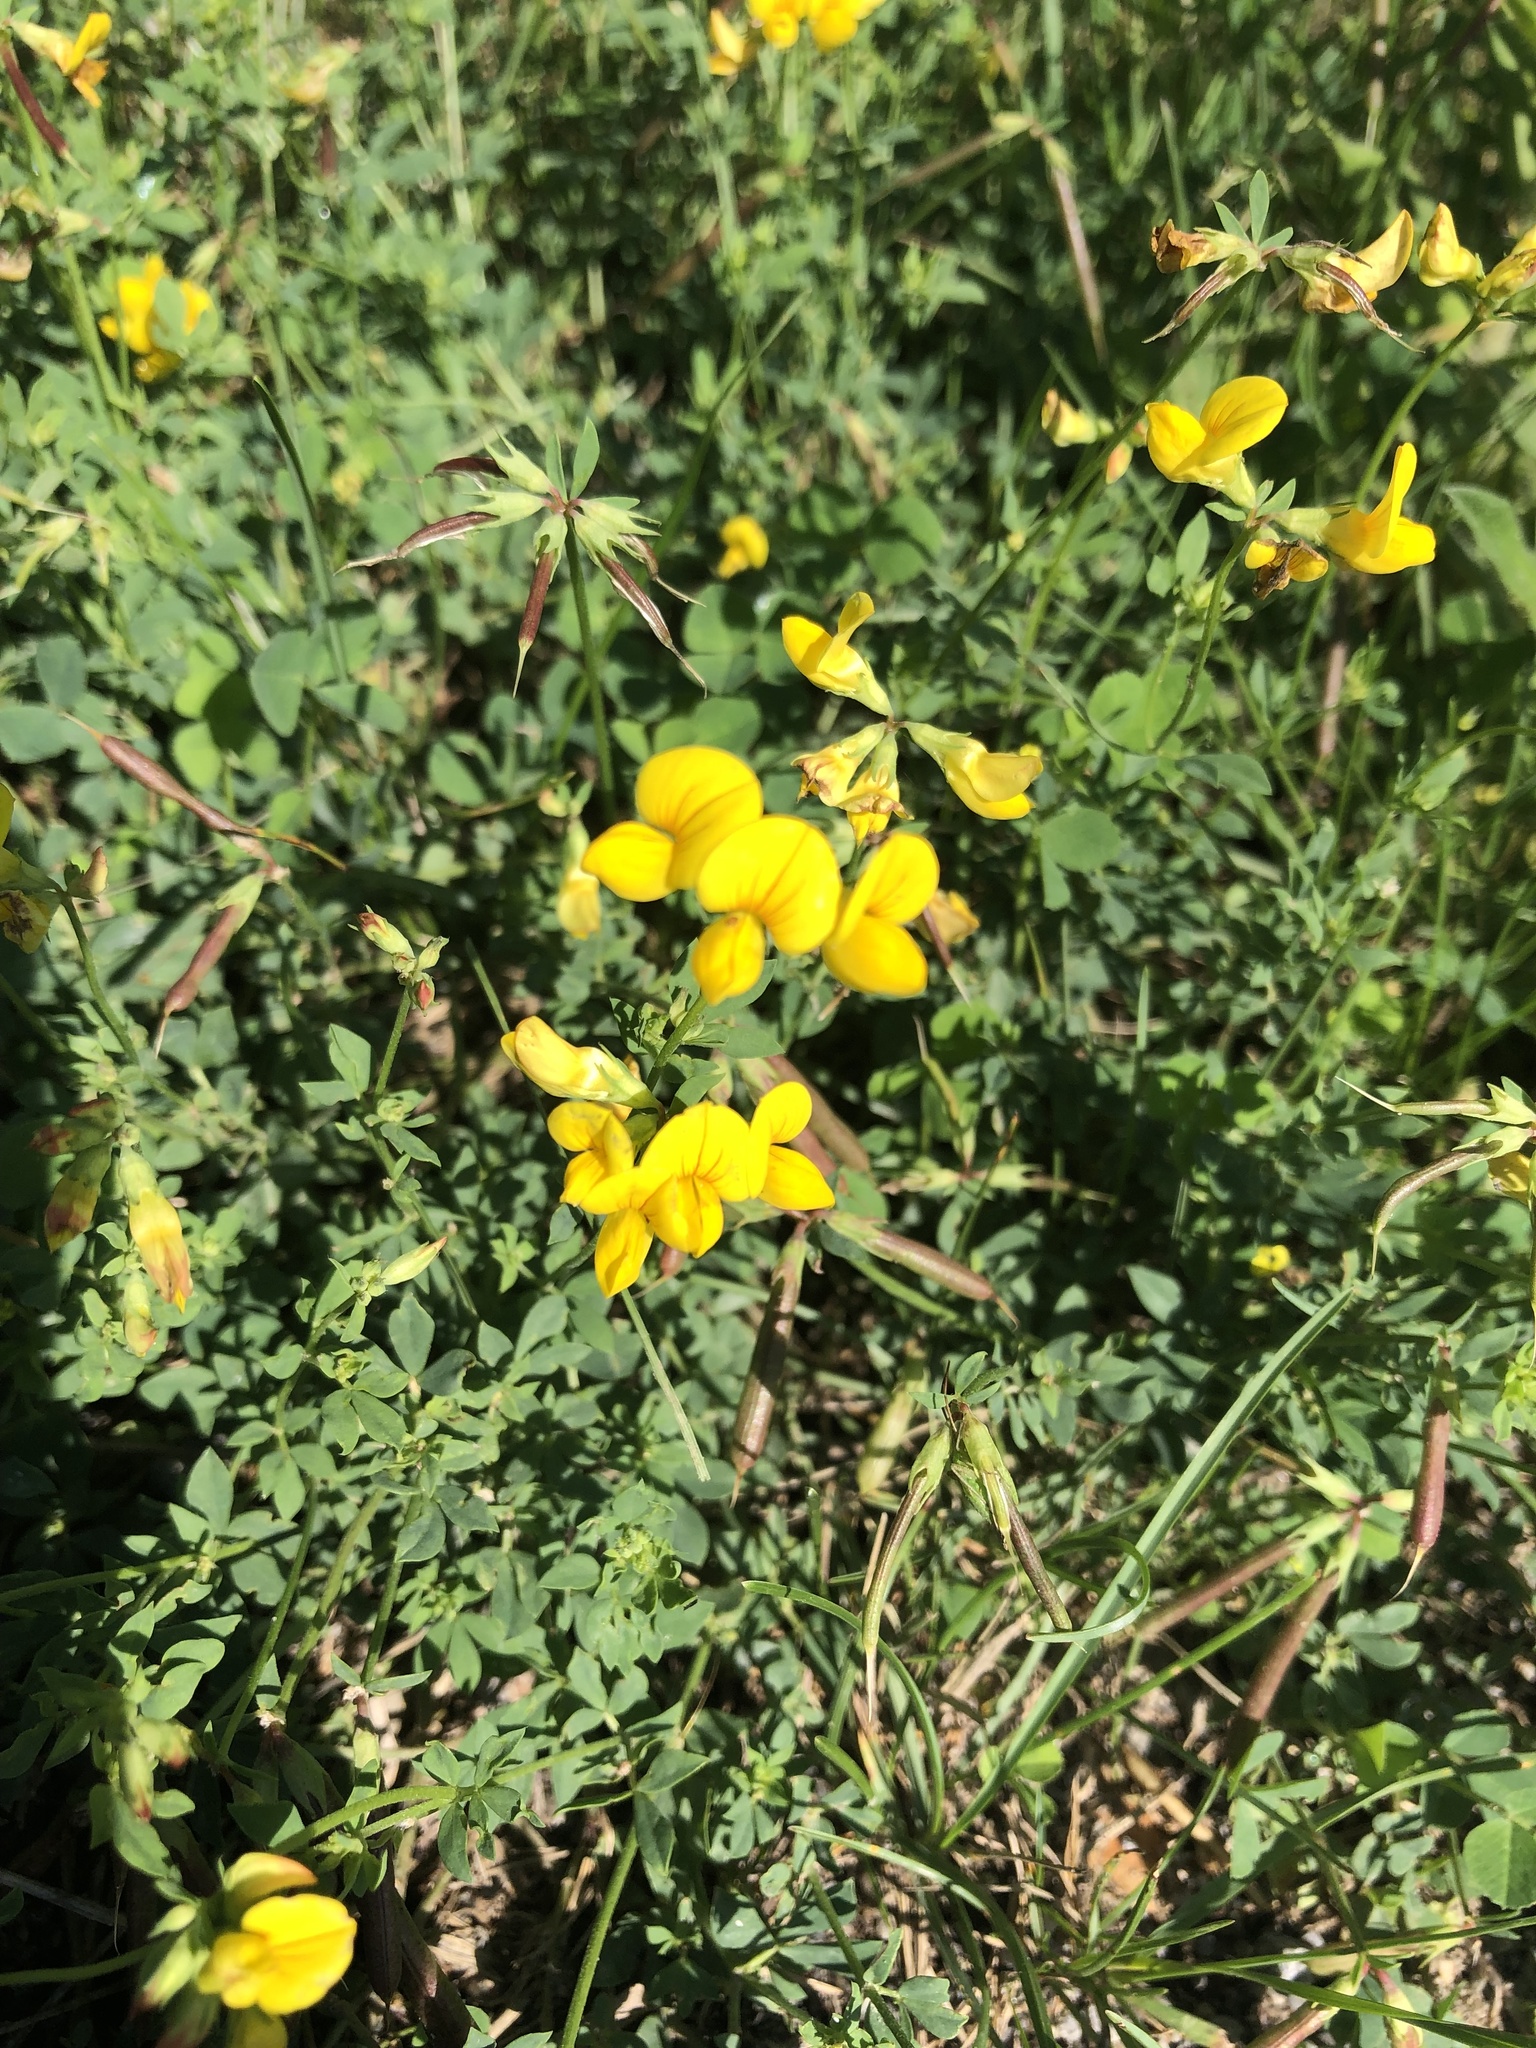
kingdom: Plantae
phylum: Tracheophyta
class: Magnoliopsida
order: Fabales
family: Fabaceae
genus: Lotus
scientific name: Lotus corniculatus
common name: Common bird's-foot-trefoil
